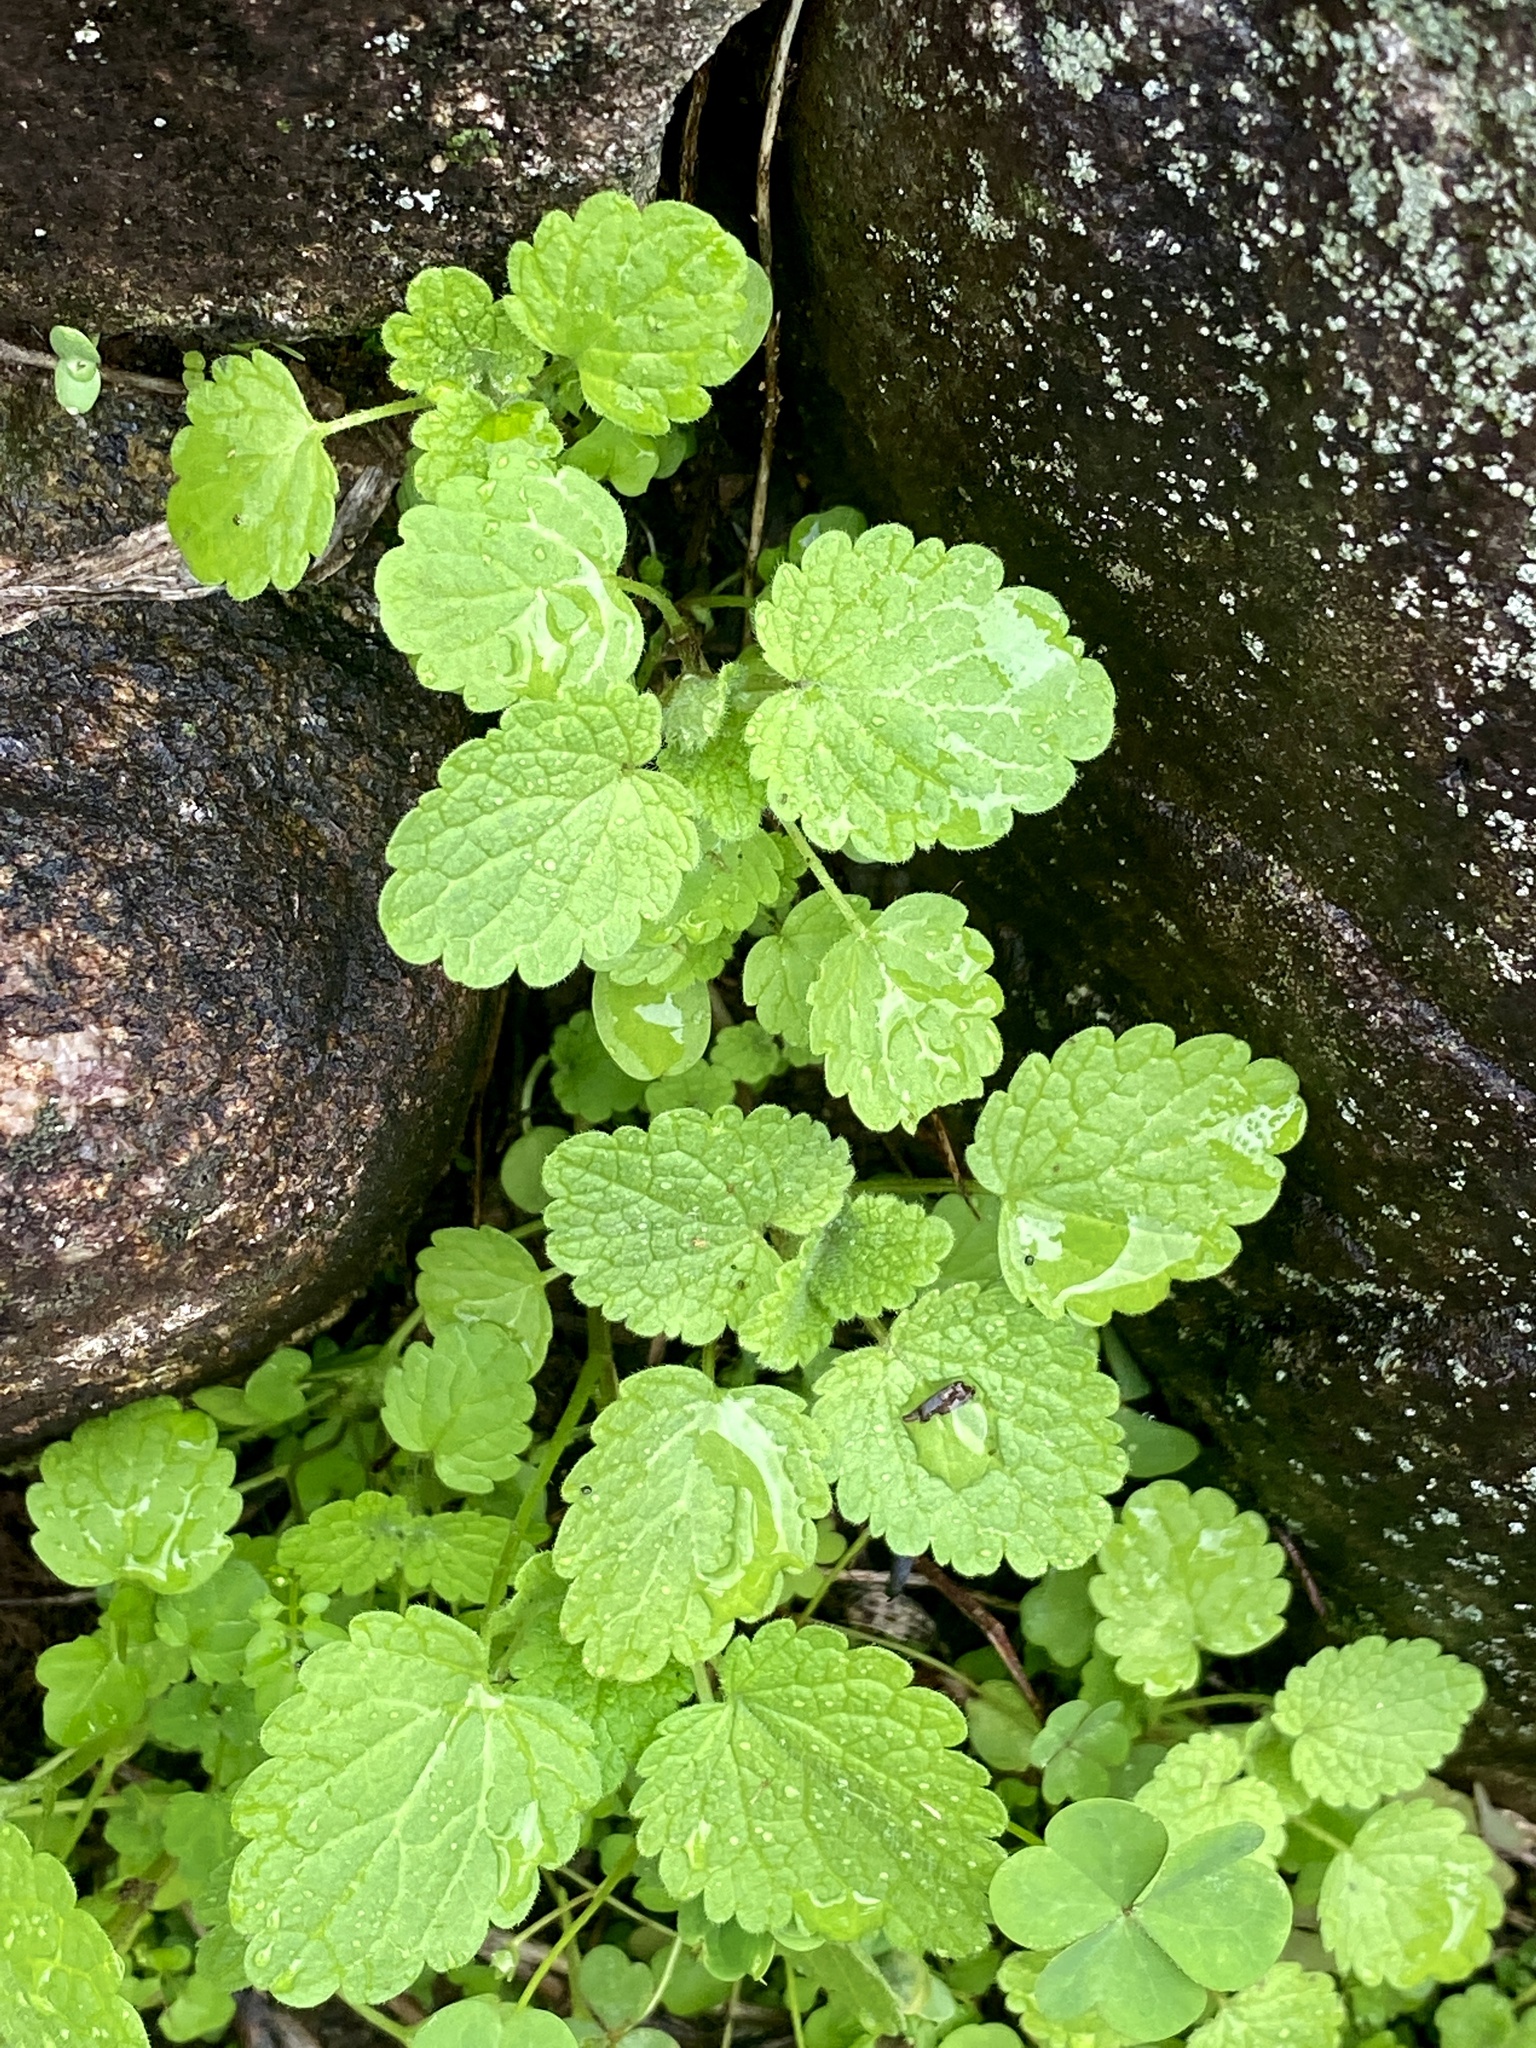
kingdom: Plantae
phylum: Tracheophyta
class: Magnoliopsida
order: Lamiales
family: Lamiaceae
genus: Lamium
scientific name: Lamium purpureum
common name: Red dead-nettle
